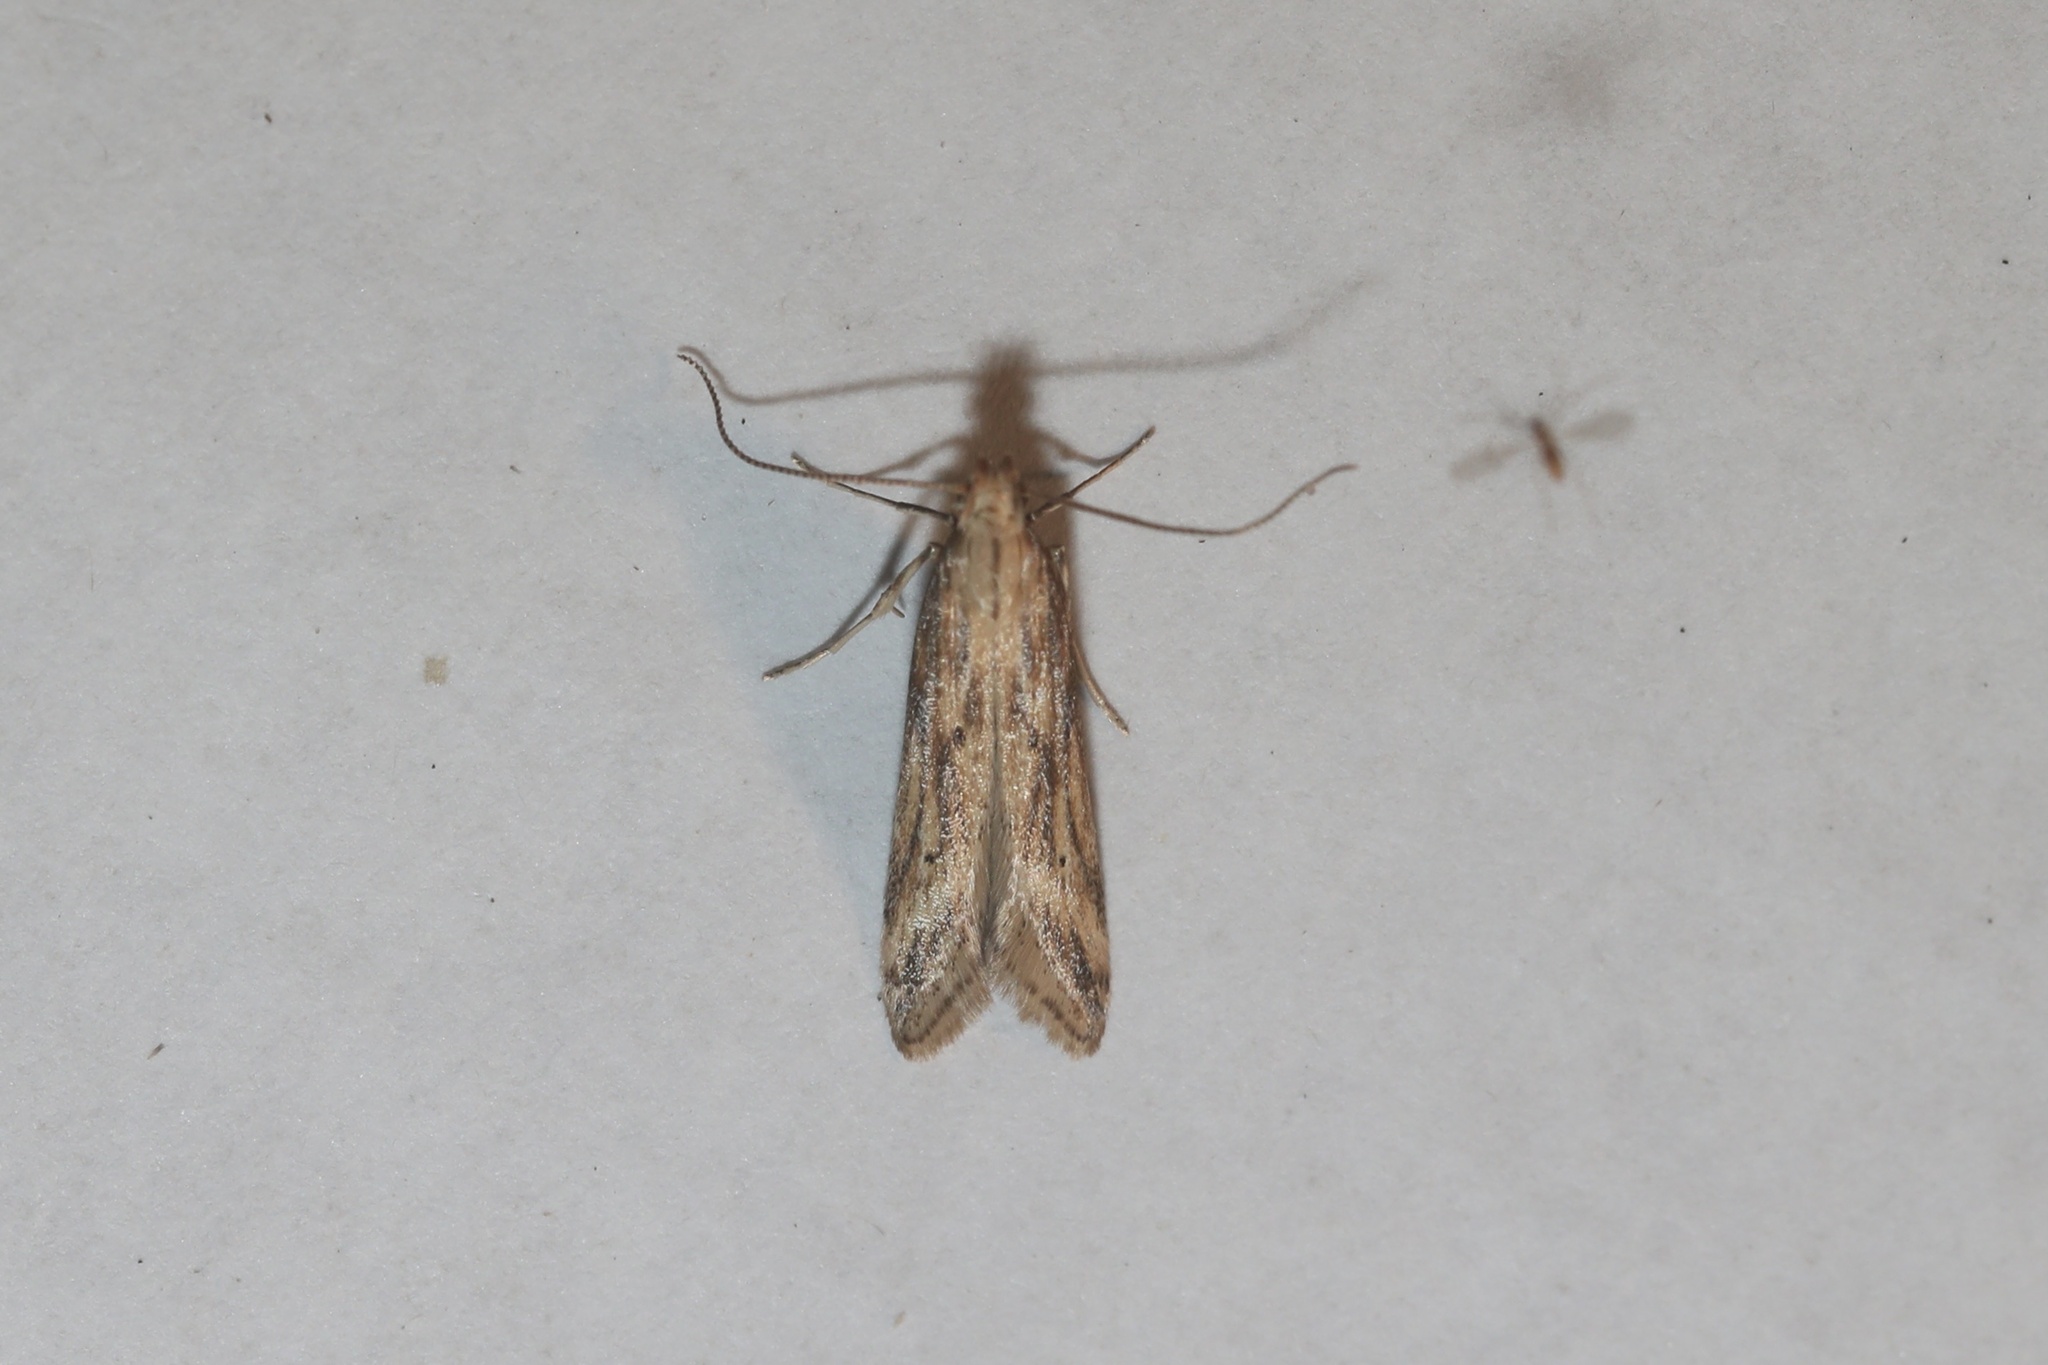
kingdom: Animalia
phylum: Arthropoda
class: Insecta
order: Lepidoptera
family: Gelechiidae
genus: Metzneria
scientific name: Metzneria lappella
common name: Burdock neb
